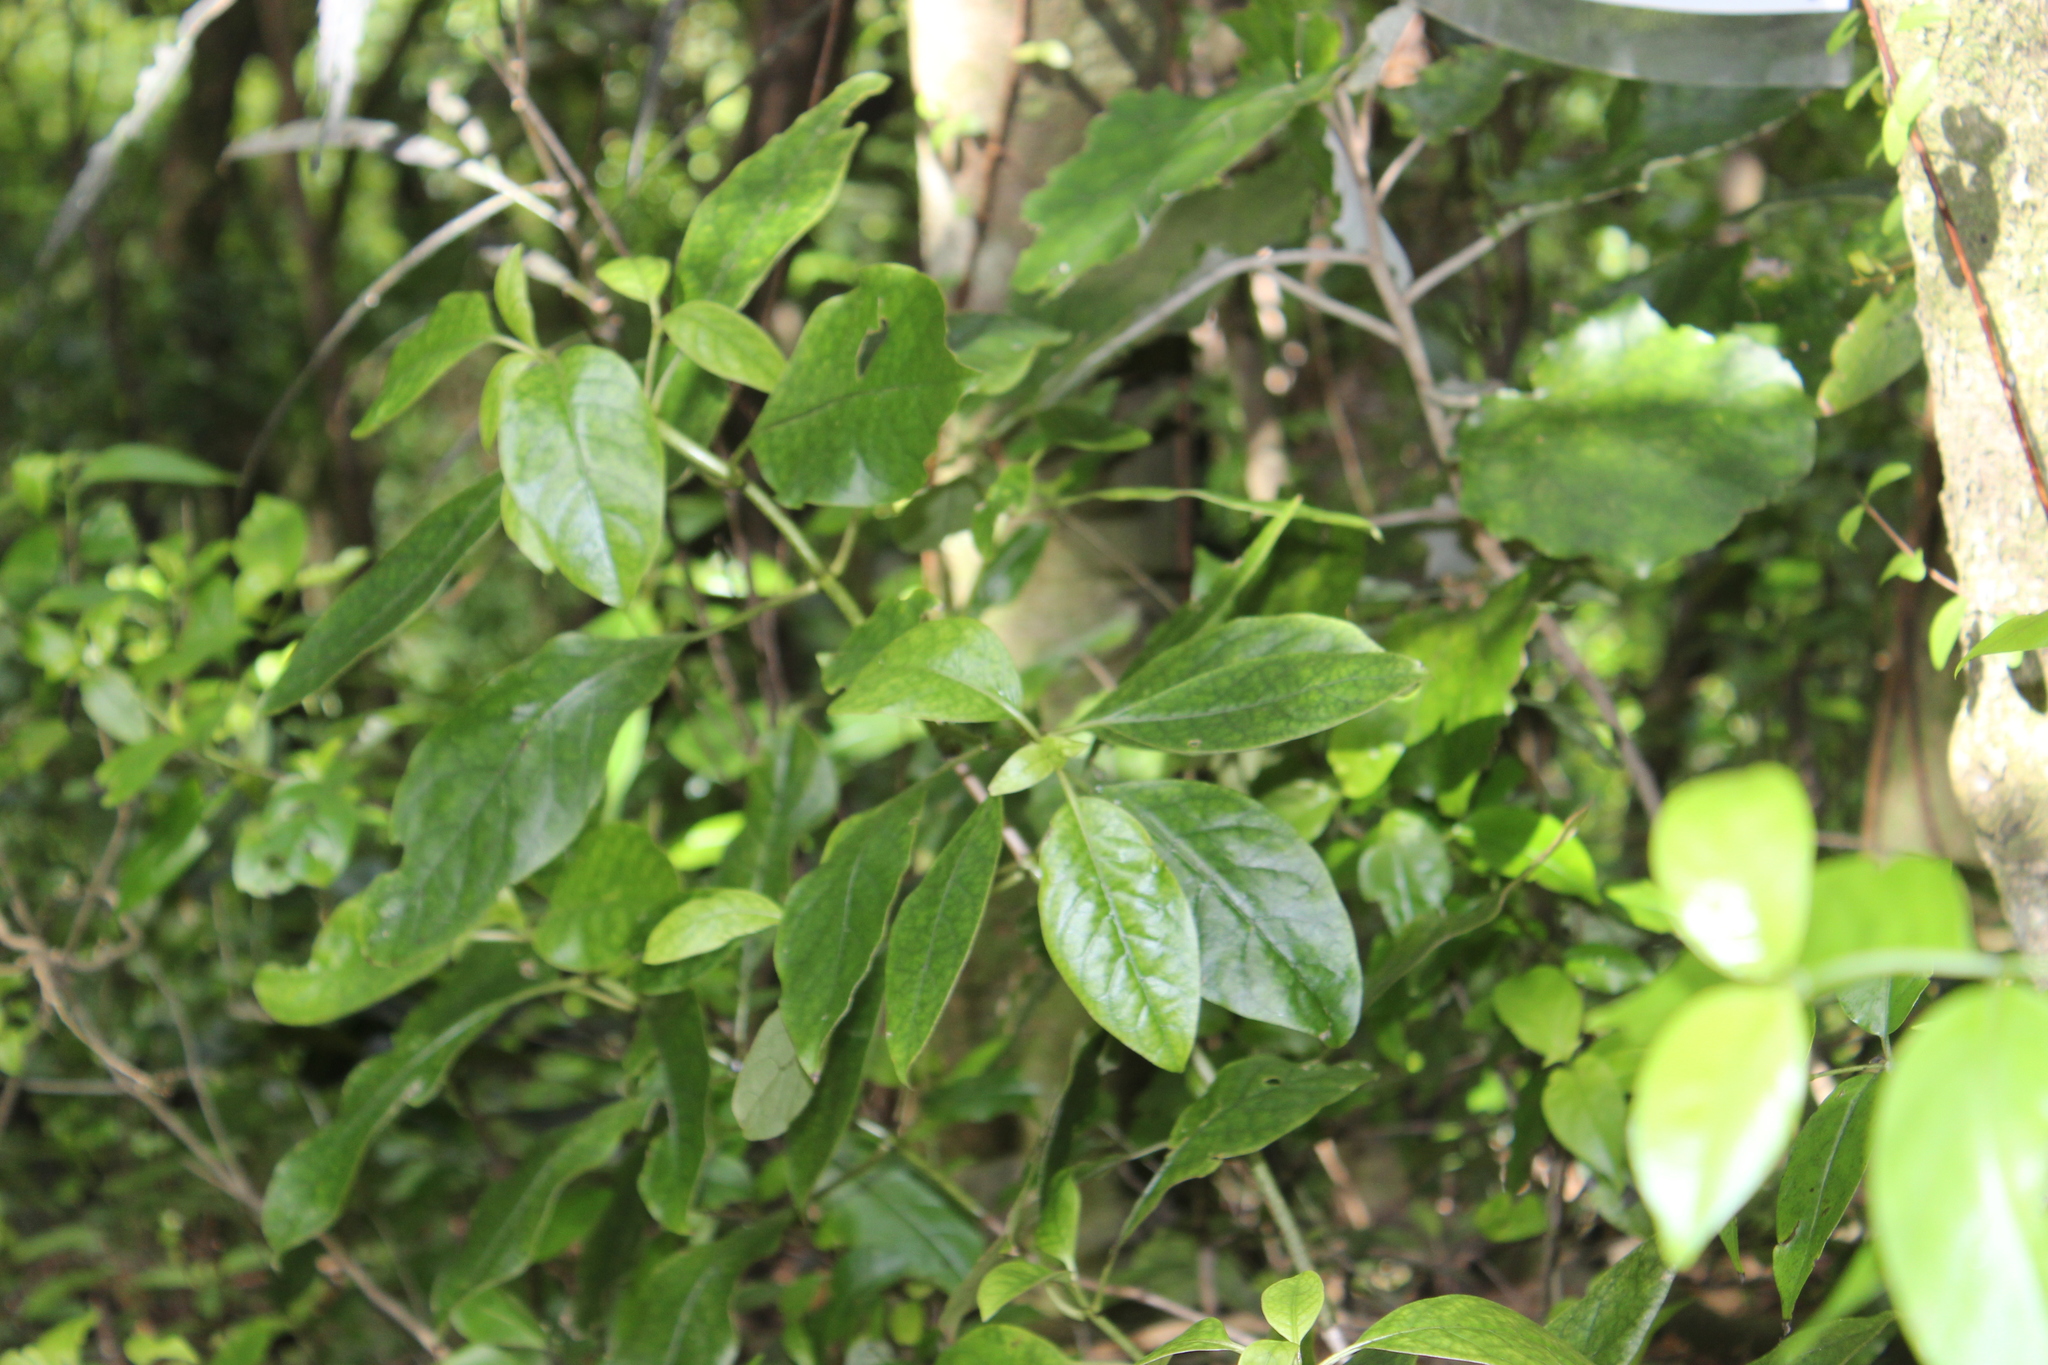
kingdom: Plantae
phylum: Tracheophyta
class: Magnoliopsida
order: Gentianales
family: Rubiaceae
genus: Coprosma
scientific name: Coprosma autumnalis
